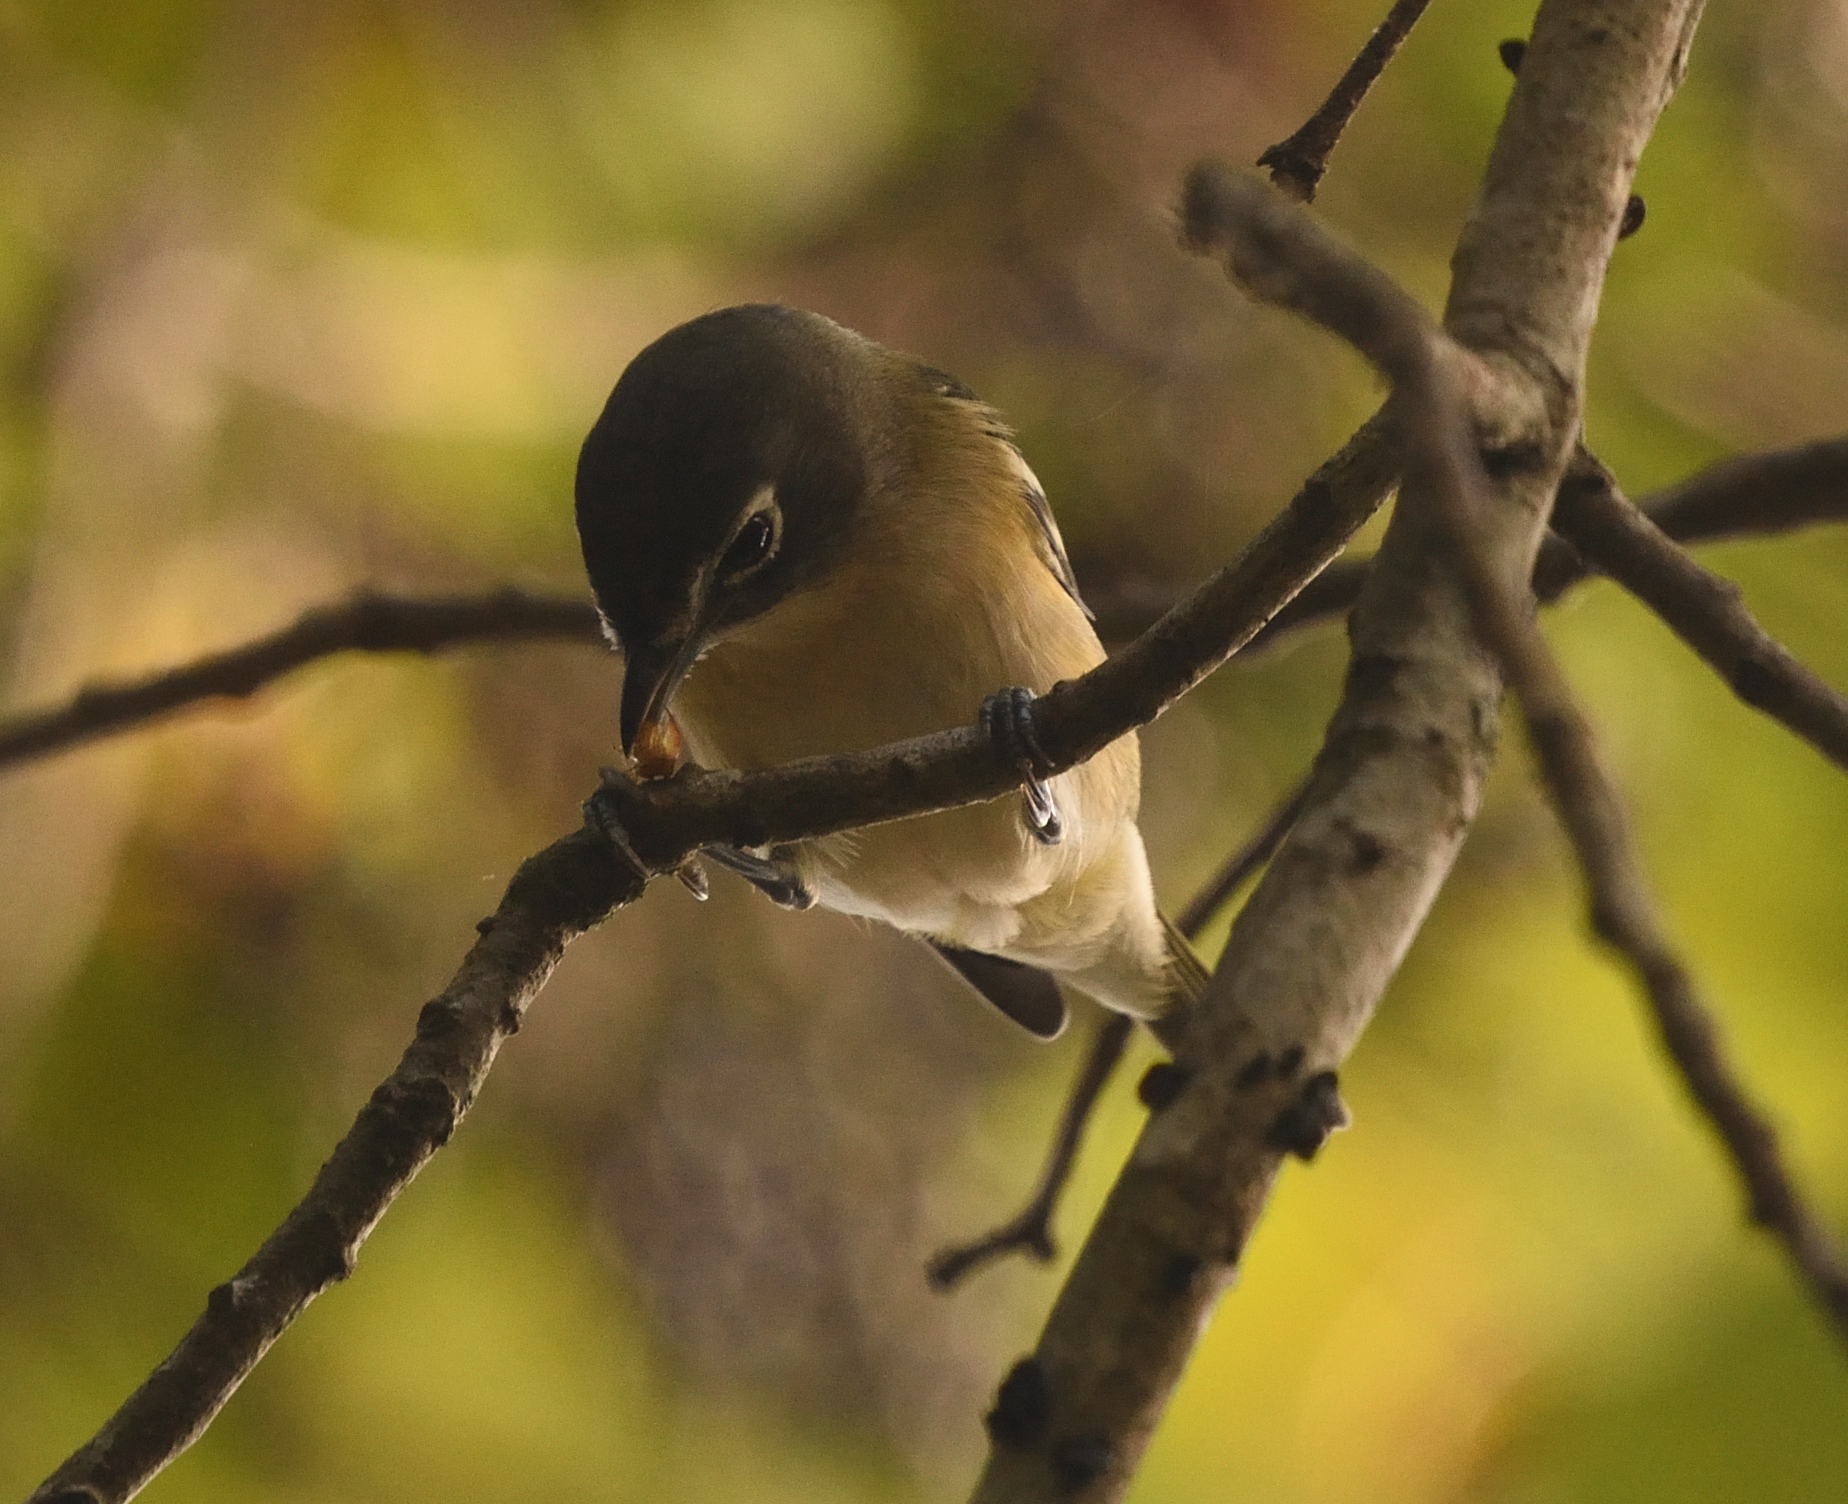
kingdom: Animalia
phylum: Chordata
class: Aves
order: Passeriformes
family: Vireonidae
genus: Vireo
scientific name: Vireo solitarius
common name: Blue-headed vireo
